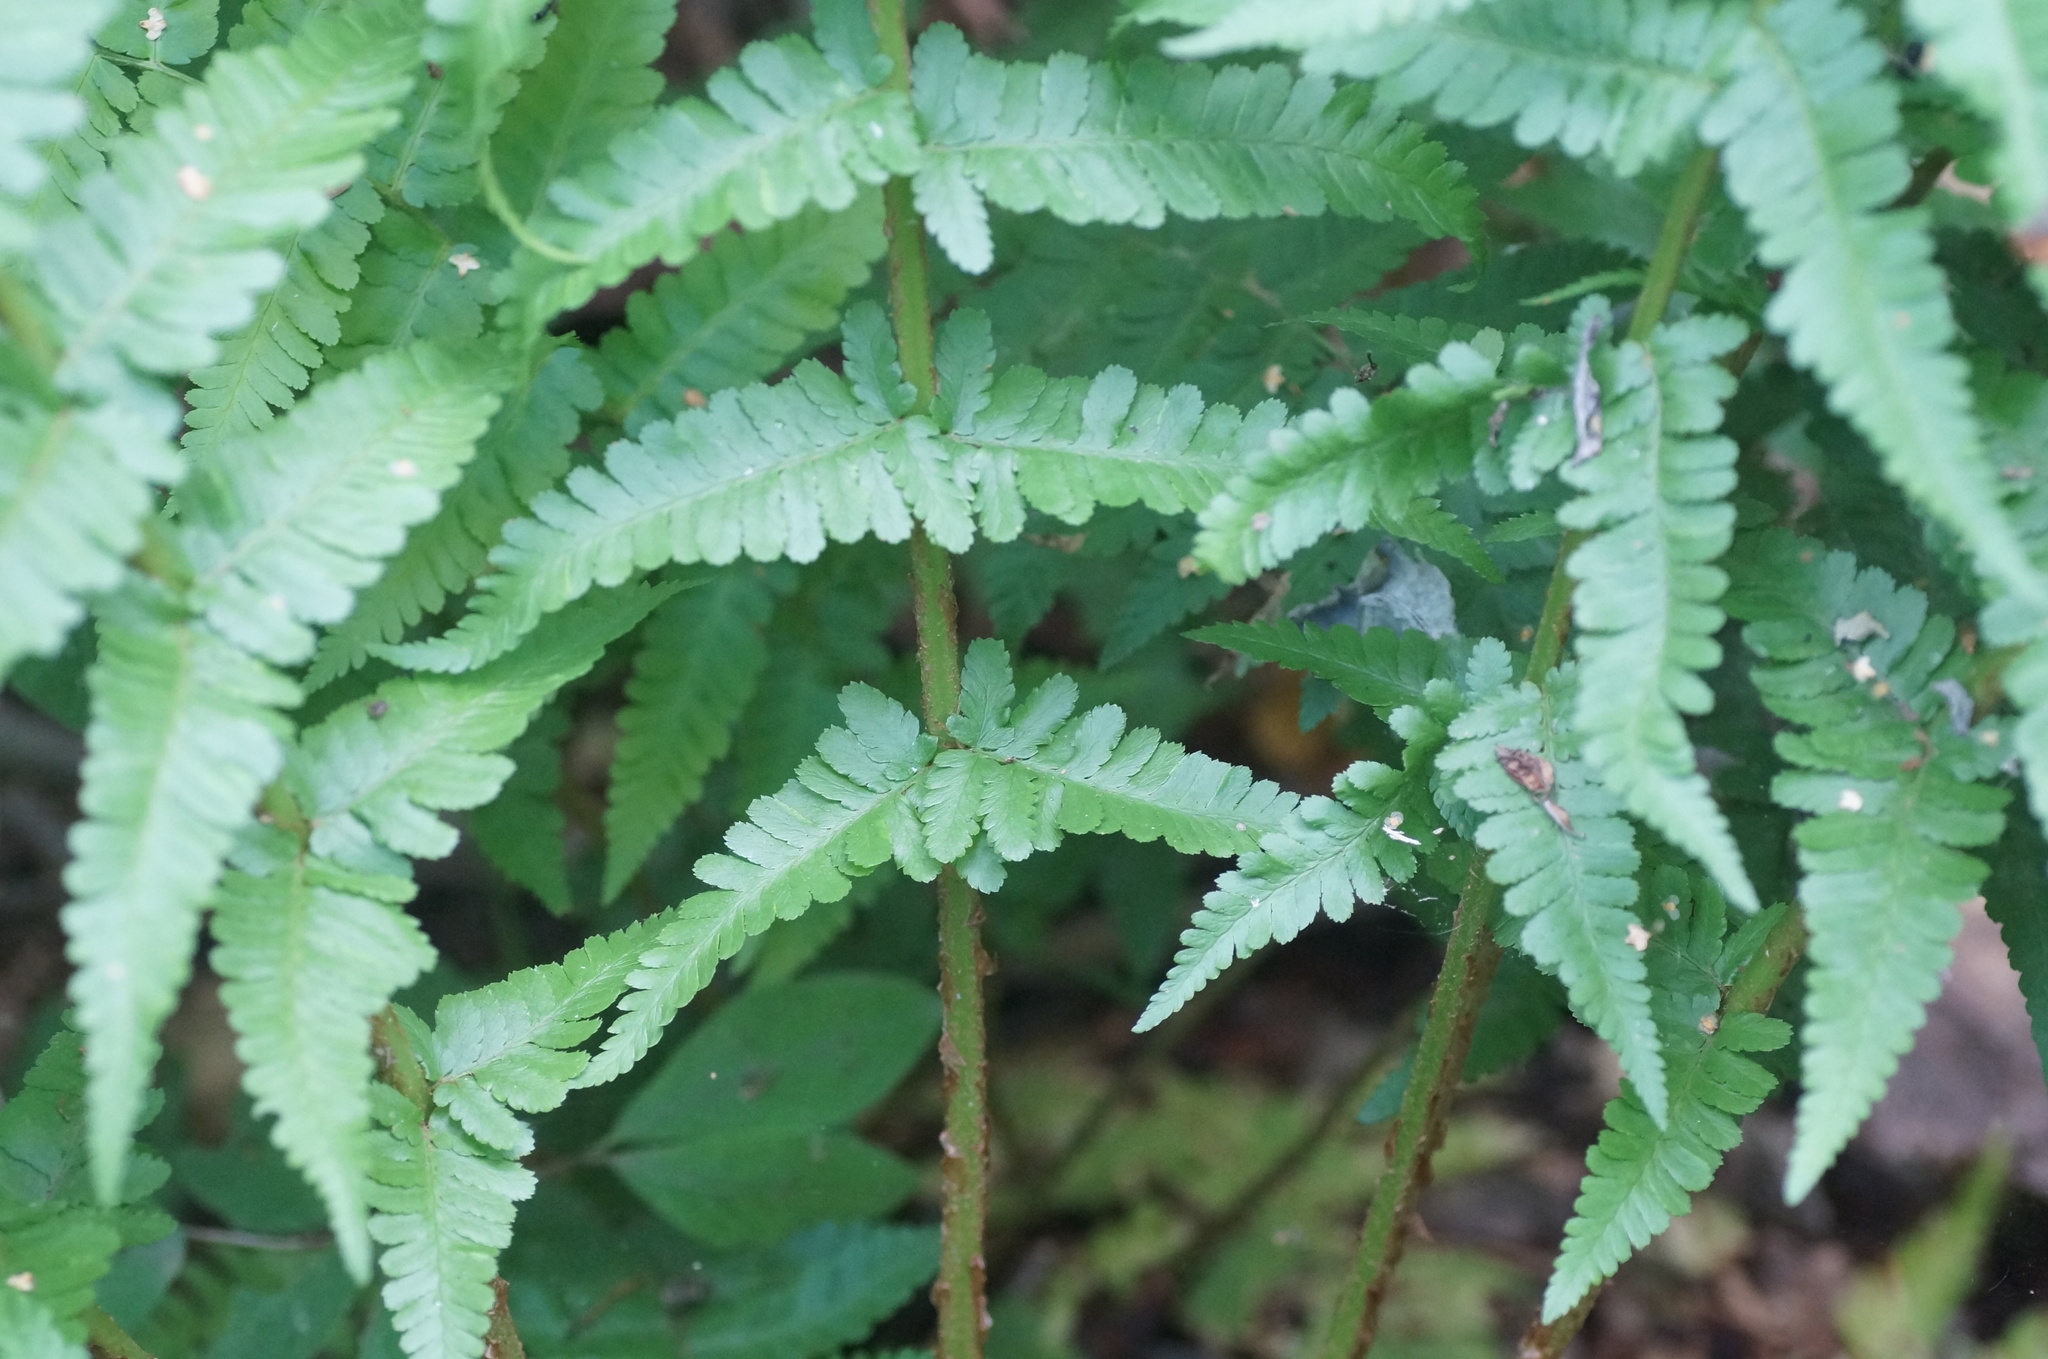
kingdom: Plantae
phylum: Tracheophyta
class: Polypodiopsida
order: Polypodiales
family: Dryopteridaceae
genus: Dryopteris
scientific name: Dryopteris filix-mas
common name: Male fern
